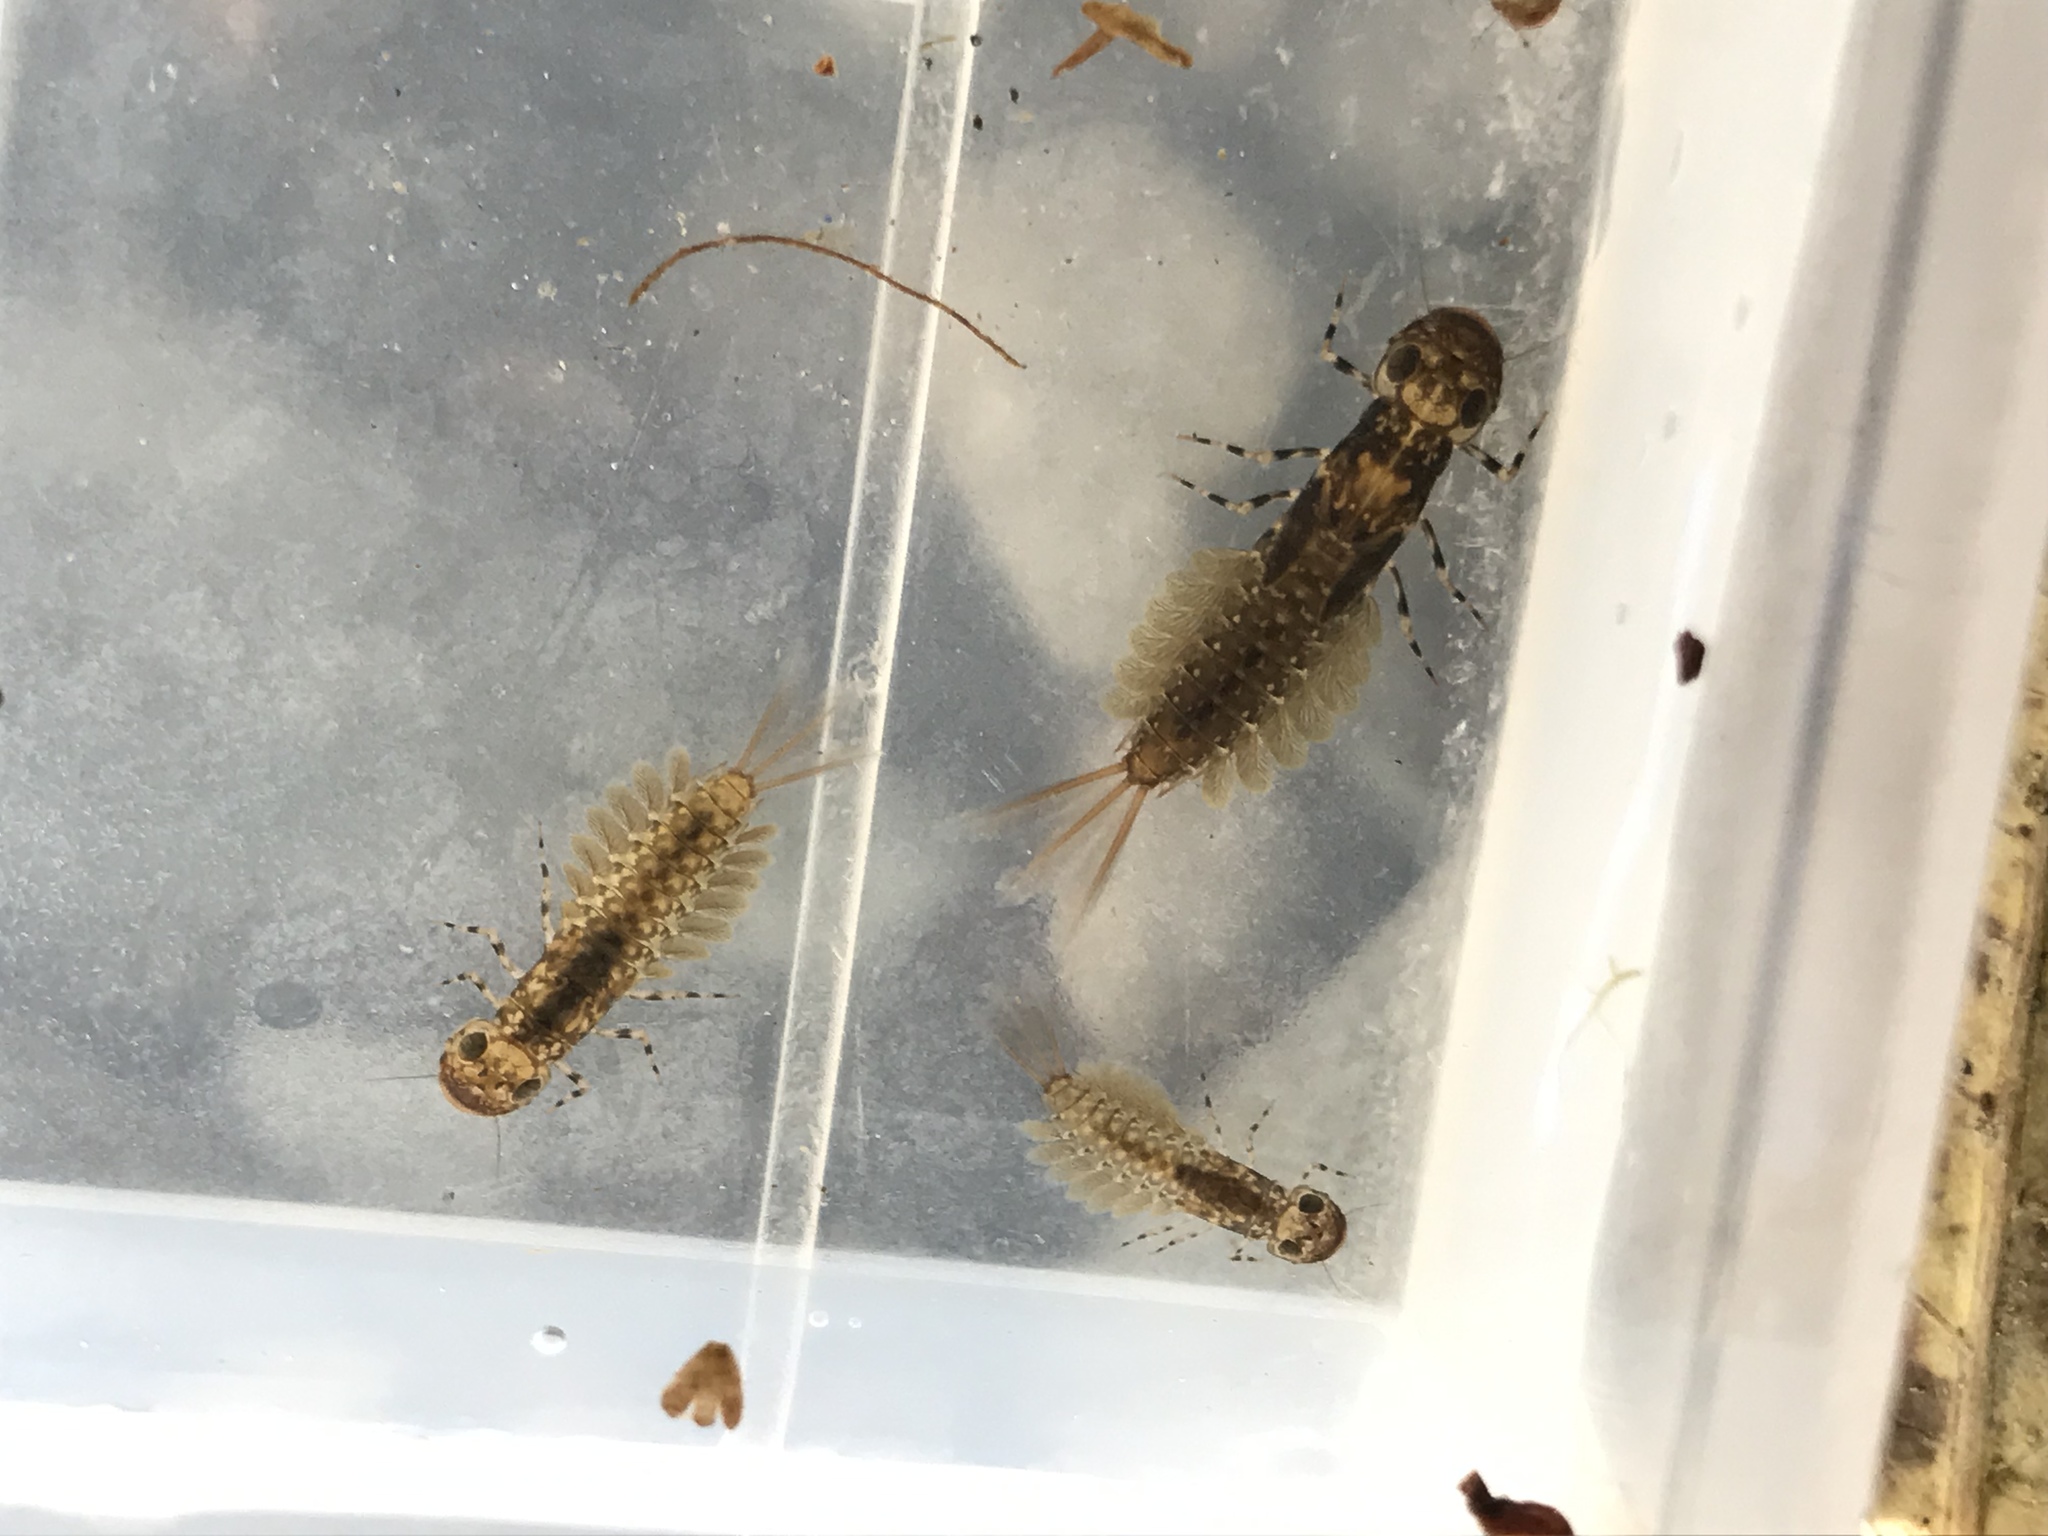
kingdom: Animalia
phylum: Arthropoda
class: Insecta
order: Ephemeroptera
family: Ameletopsidae
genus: Ameletopsis
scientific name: Ameletopsis perscitus
